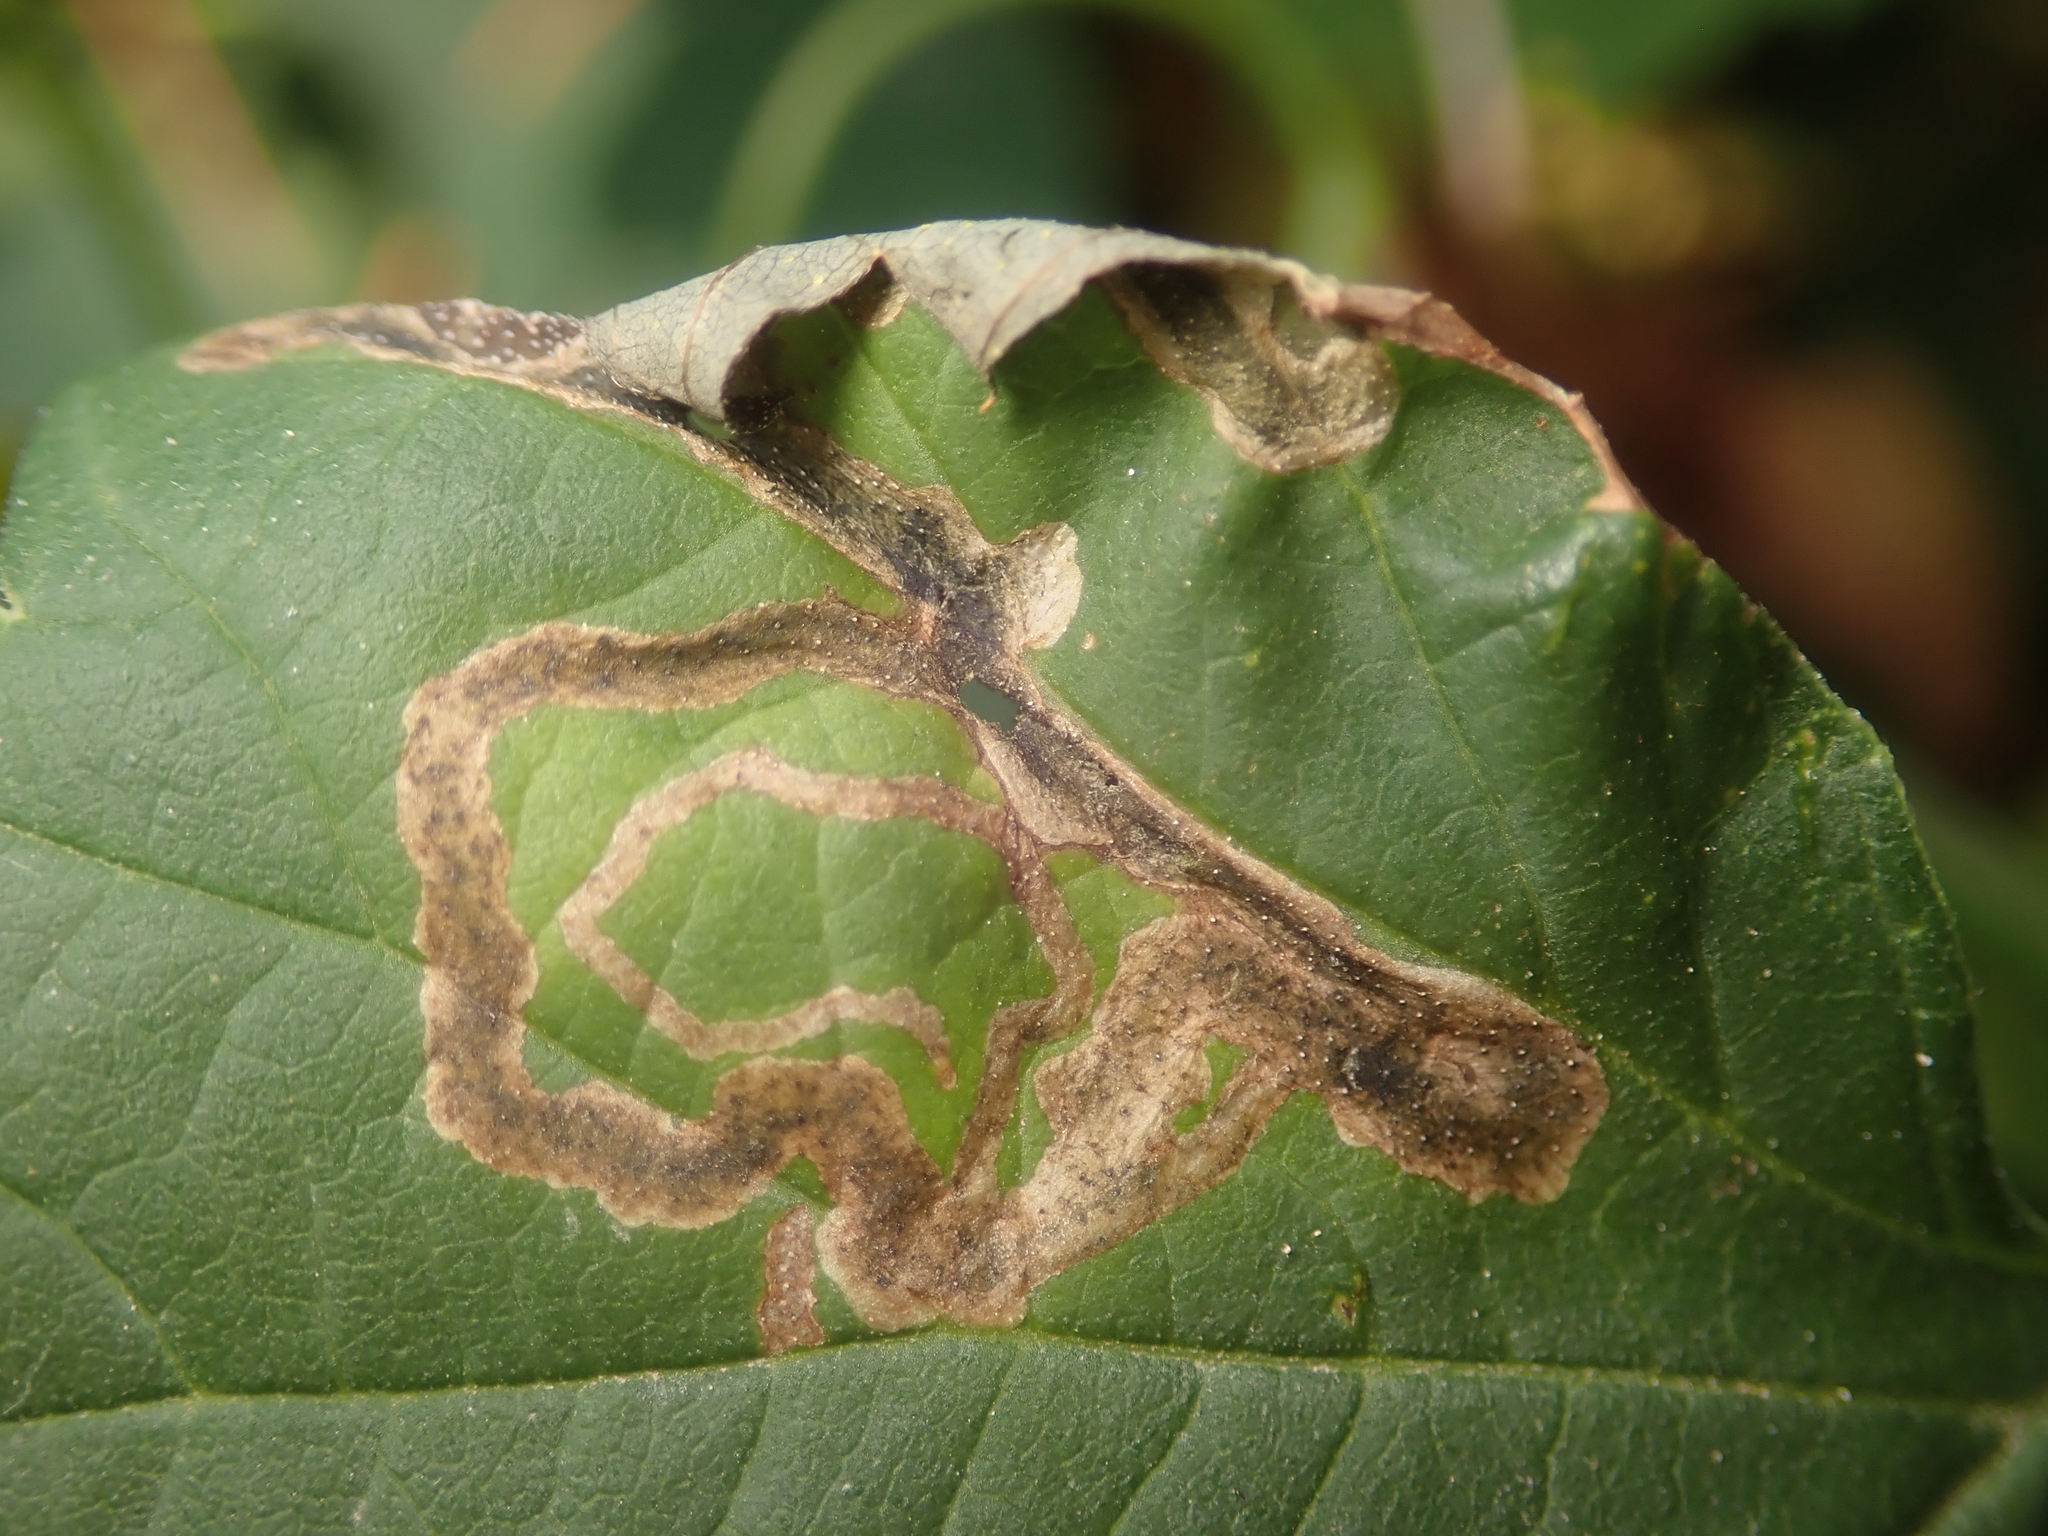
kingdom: Animalia
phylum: Arthropoda
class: Insecta
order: Diptera
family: Agromyzidae
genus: Agromyza
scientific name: Agromyza flaviceps
